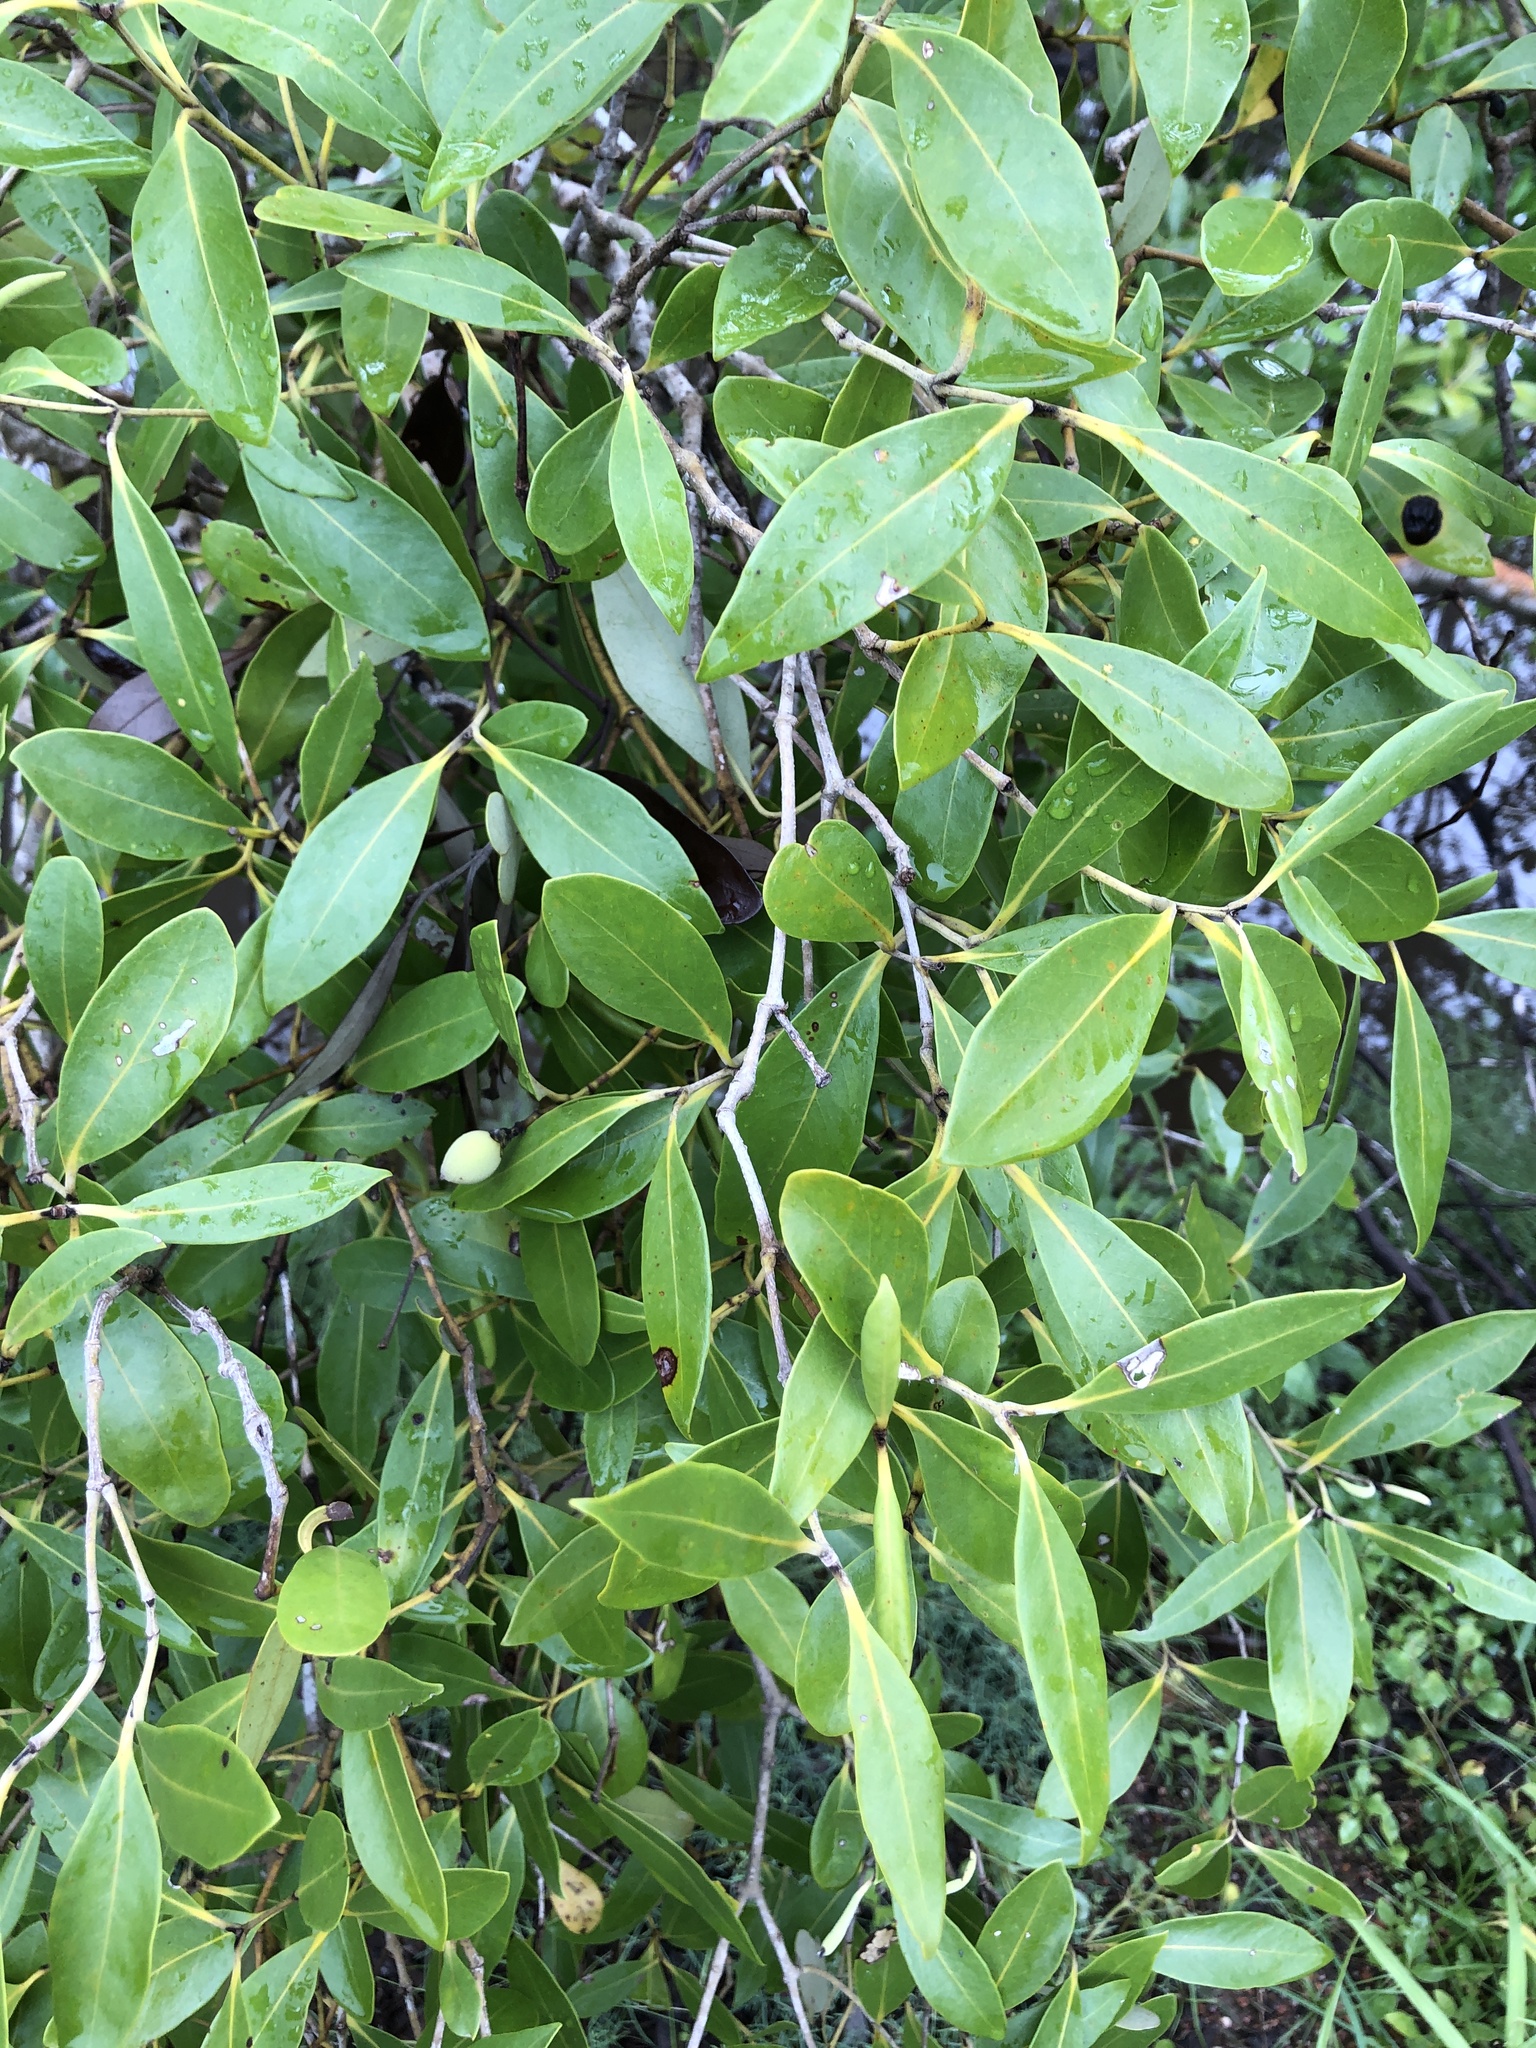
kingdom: Plantae
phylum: Tracheophyta
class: Magnoliopsida
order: Lamiales
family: Acanthaceae
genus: Avicennia
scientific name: Avicennia marina
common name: Gray mangrove
